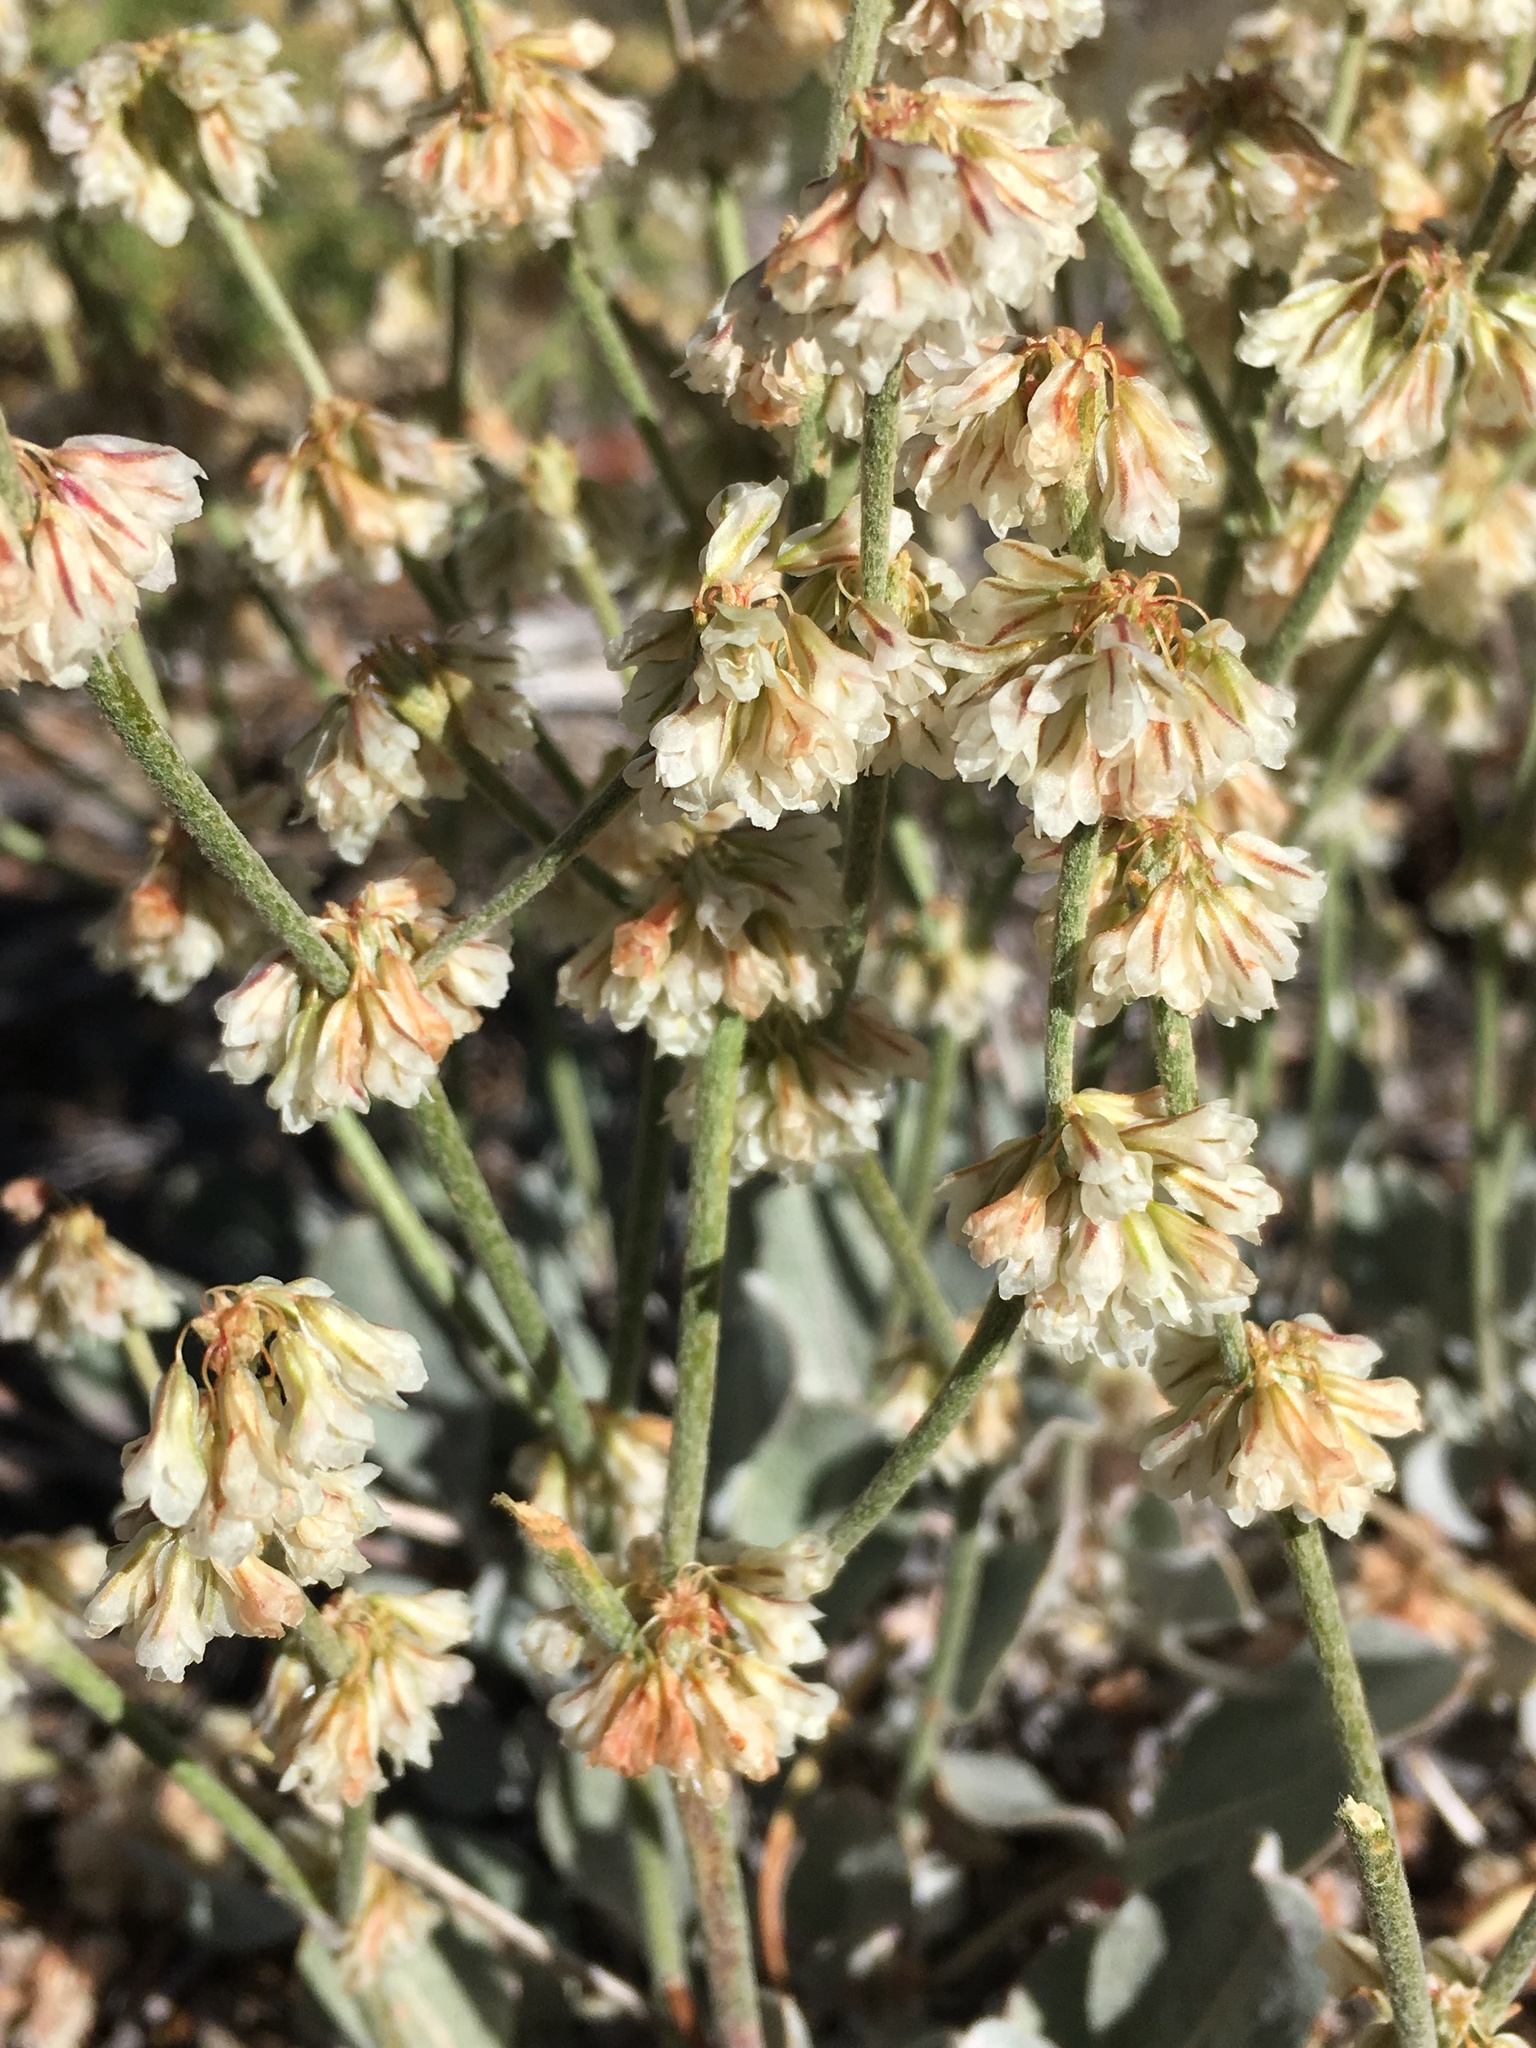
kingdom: Plantae
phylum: Tracheophyta
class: Magnoliopsida
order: Caryophyllales
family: Polygonaceae
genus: Eriogonum
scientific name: Eriogonum rupinum
